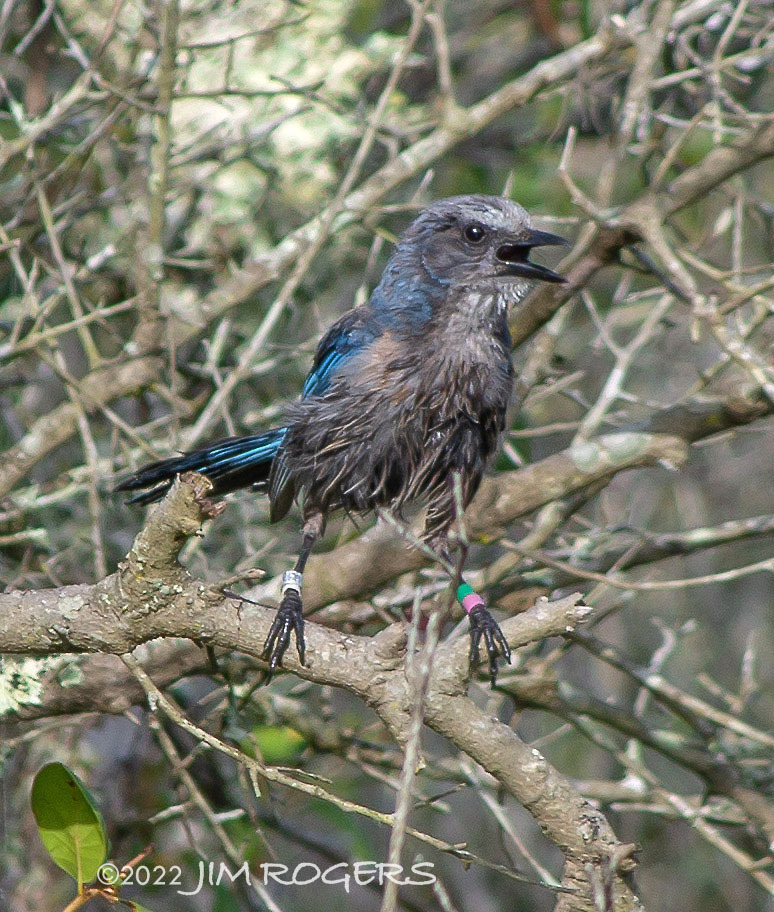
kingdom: Animalia
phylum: Chordata
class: Aves
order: Passeriformes
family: Corvidae
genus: Aphelocoma
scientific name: Aphelocoma coerulescens
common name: Florida scrub jay
